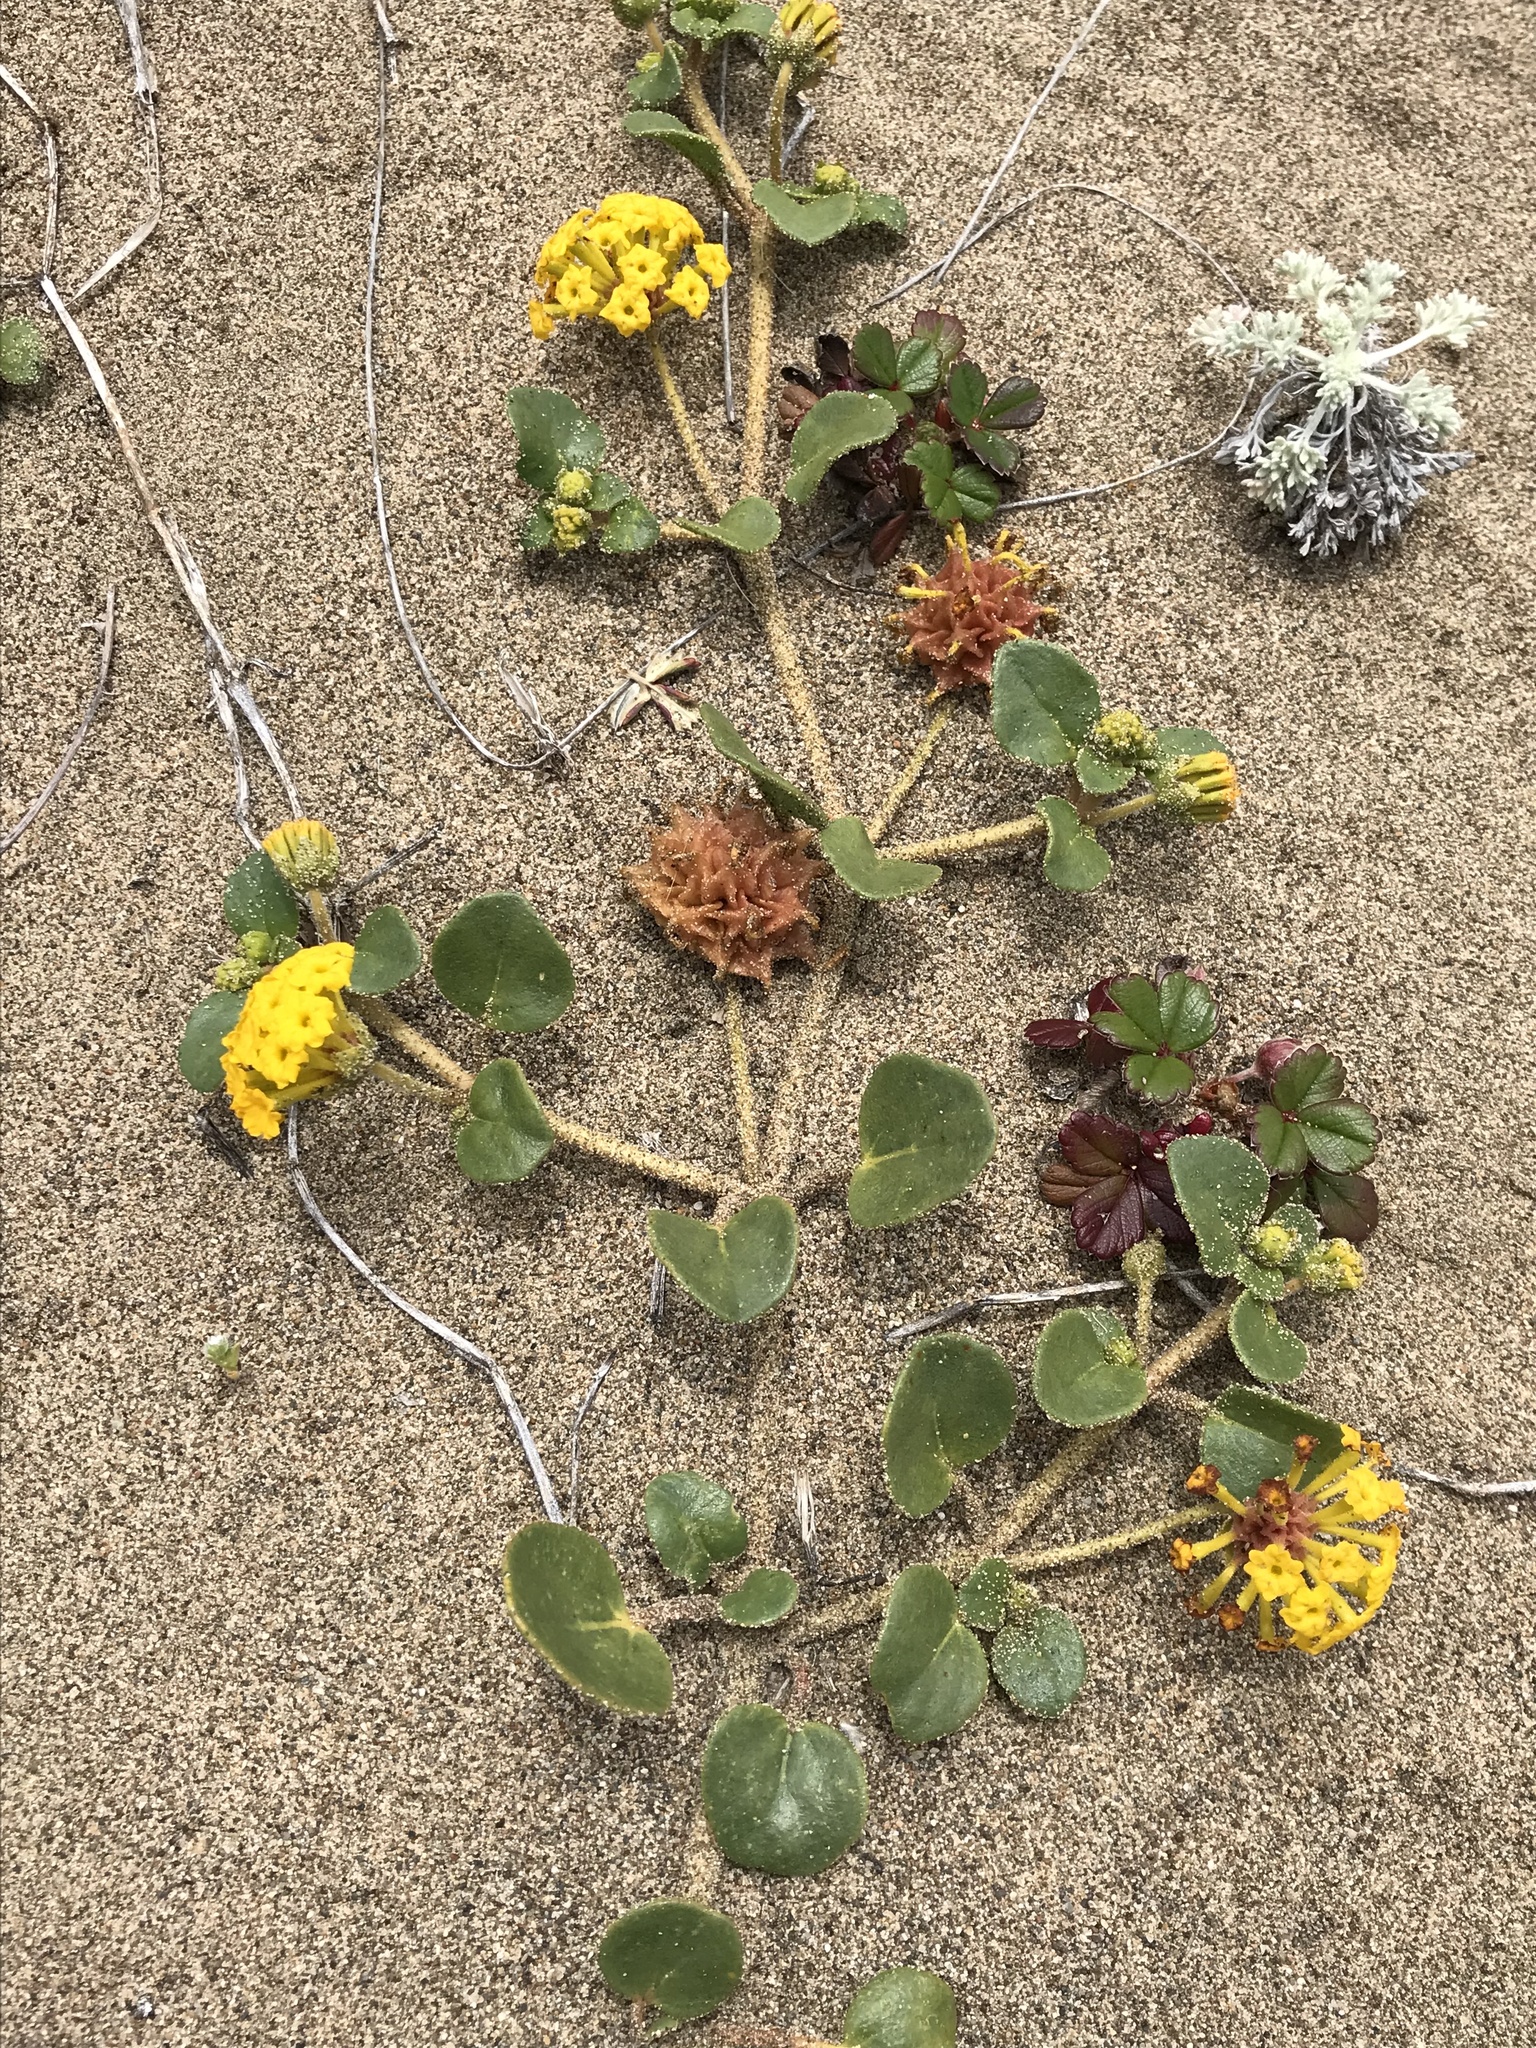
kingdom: Plantae
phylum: Tracheophyta
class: Magnoliopsida
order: Caryophyllales
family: Nyctaginaceae
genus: Abronia
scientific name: Abronia latifolia
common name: Yellow sand-verbena
